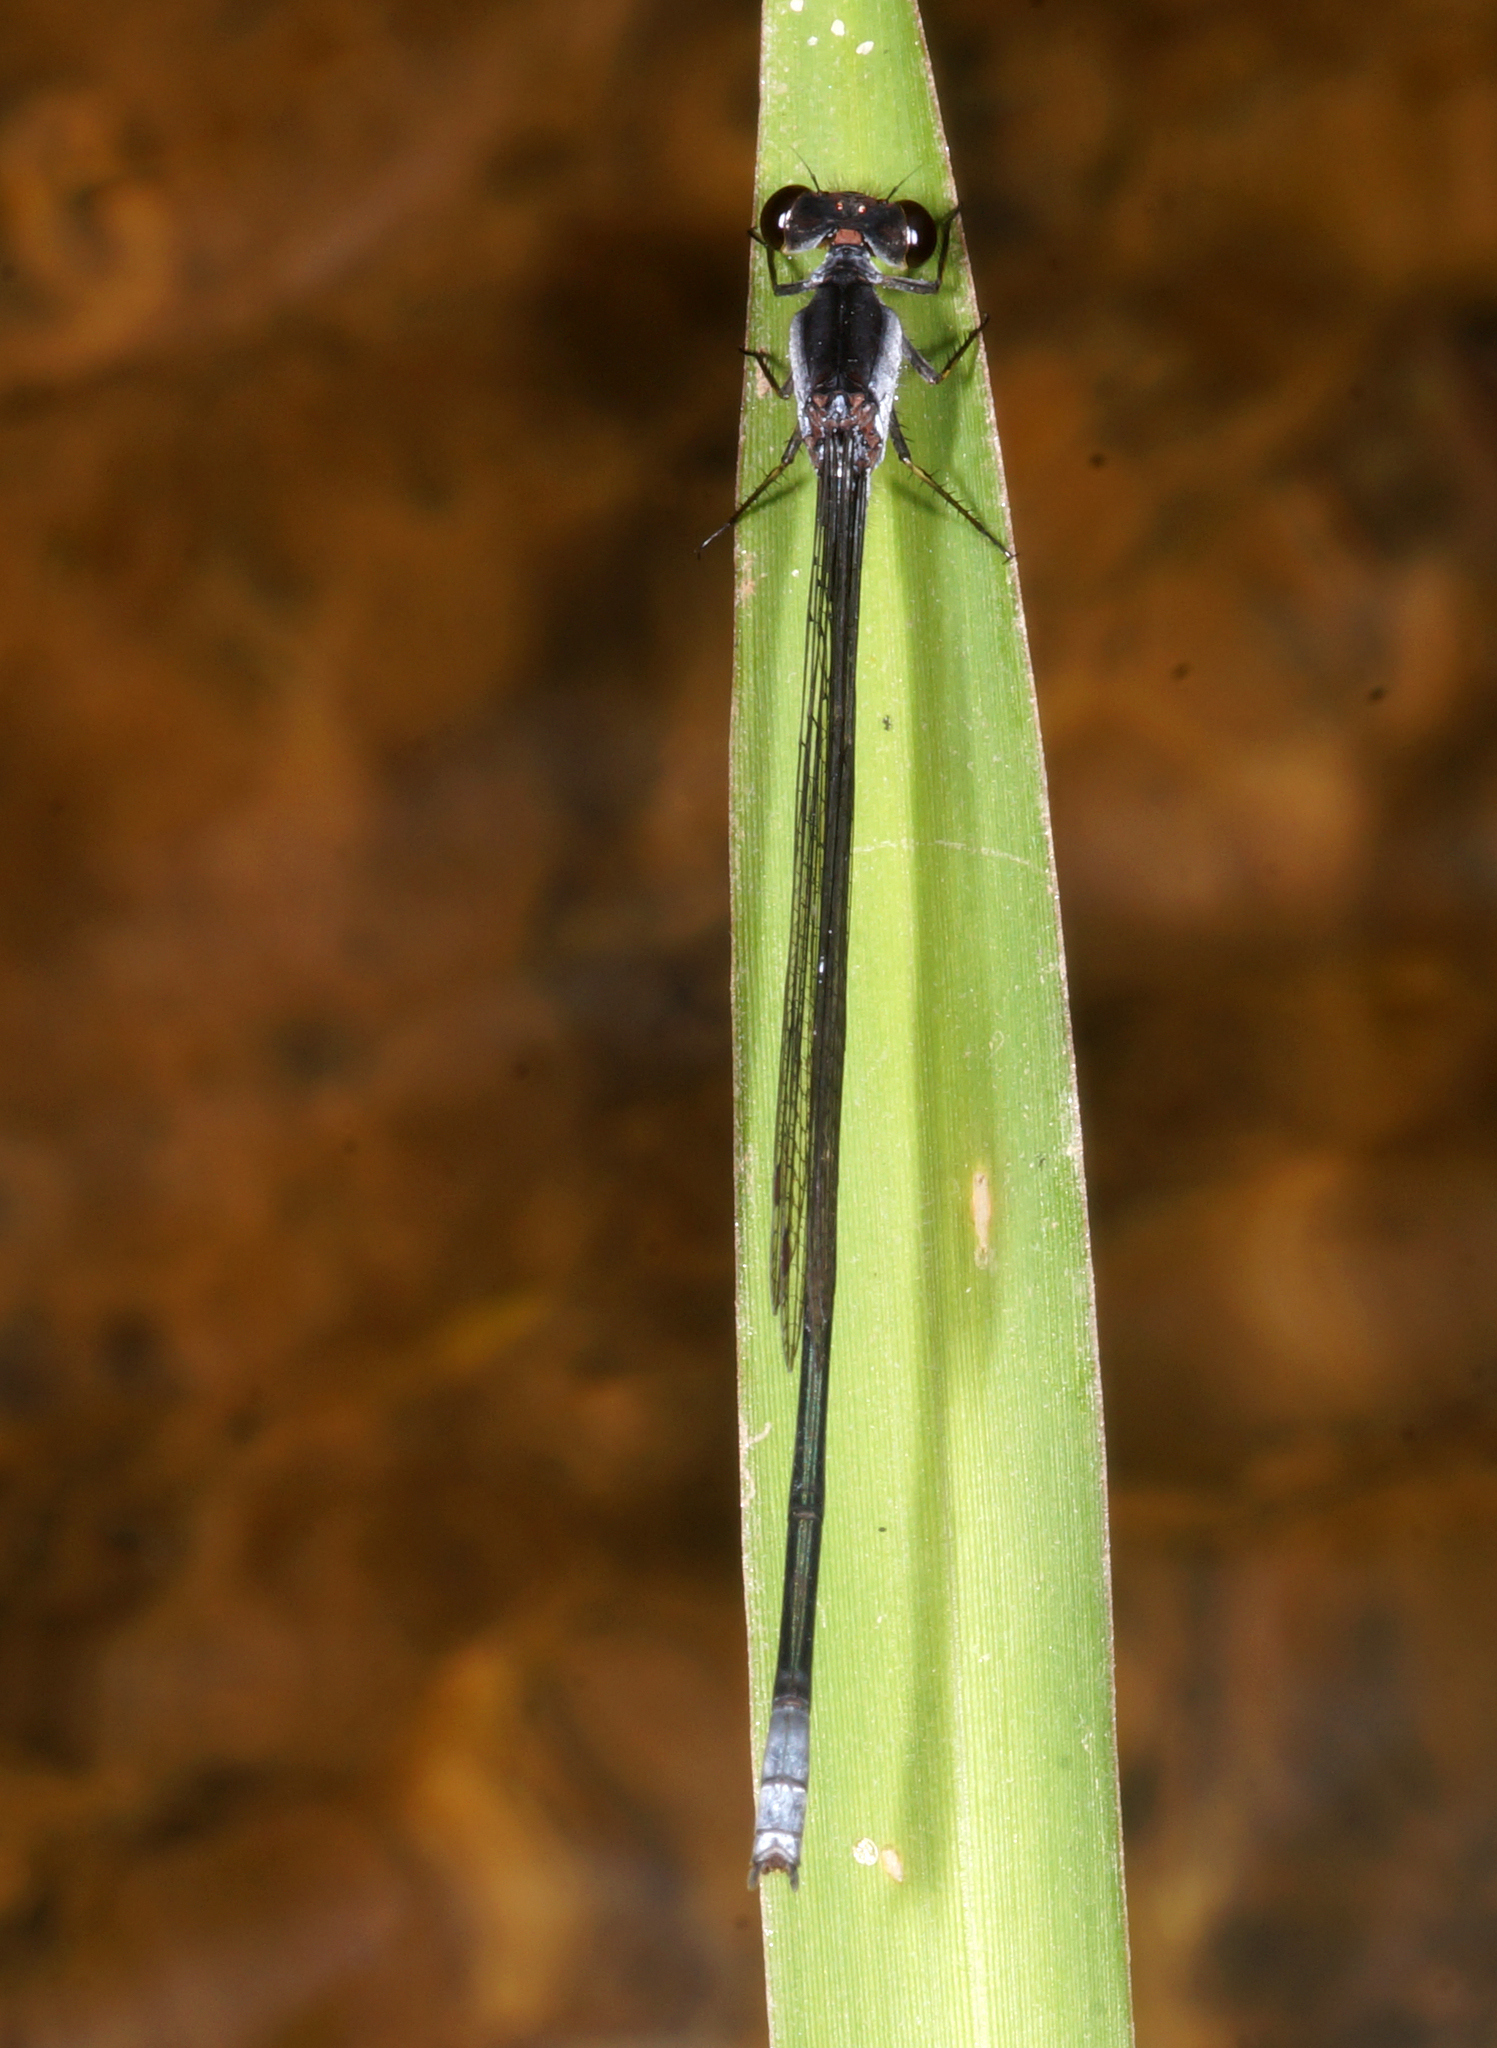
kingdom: Animalia
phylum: Arthropoda
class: Insecta
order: Odonata
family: Coenagrionidae
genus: Pseudagrion
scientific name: Pseudagrion pruinosum
